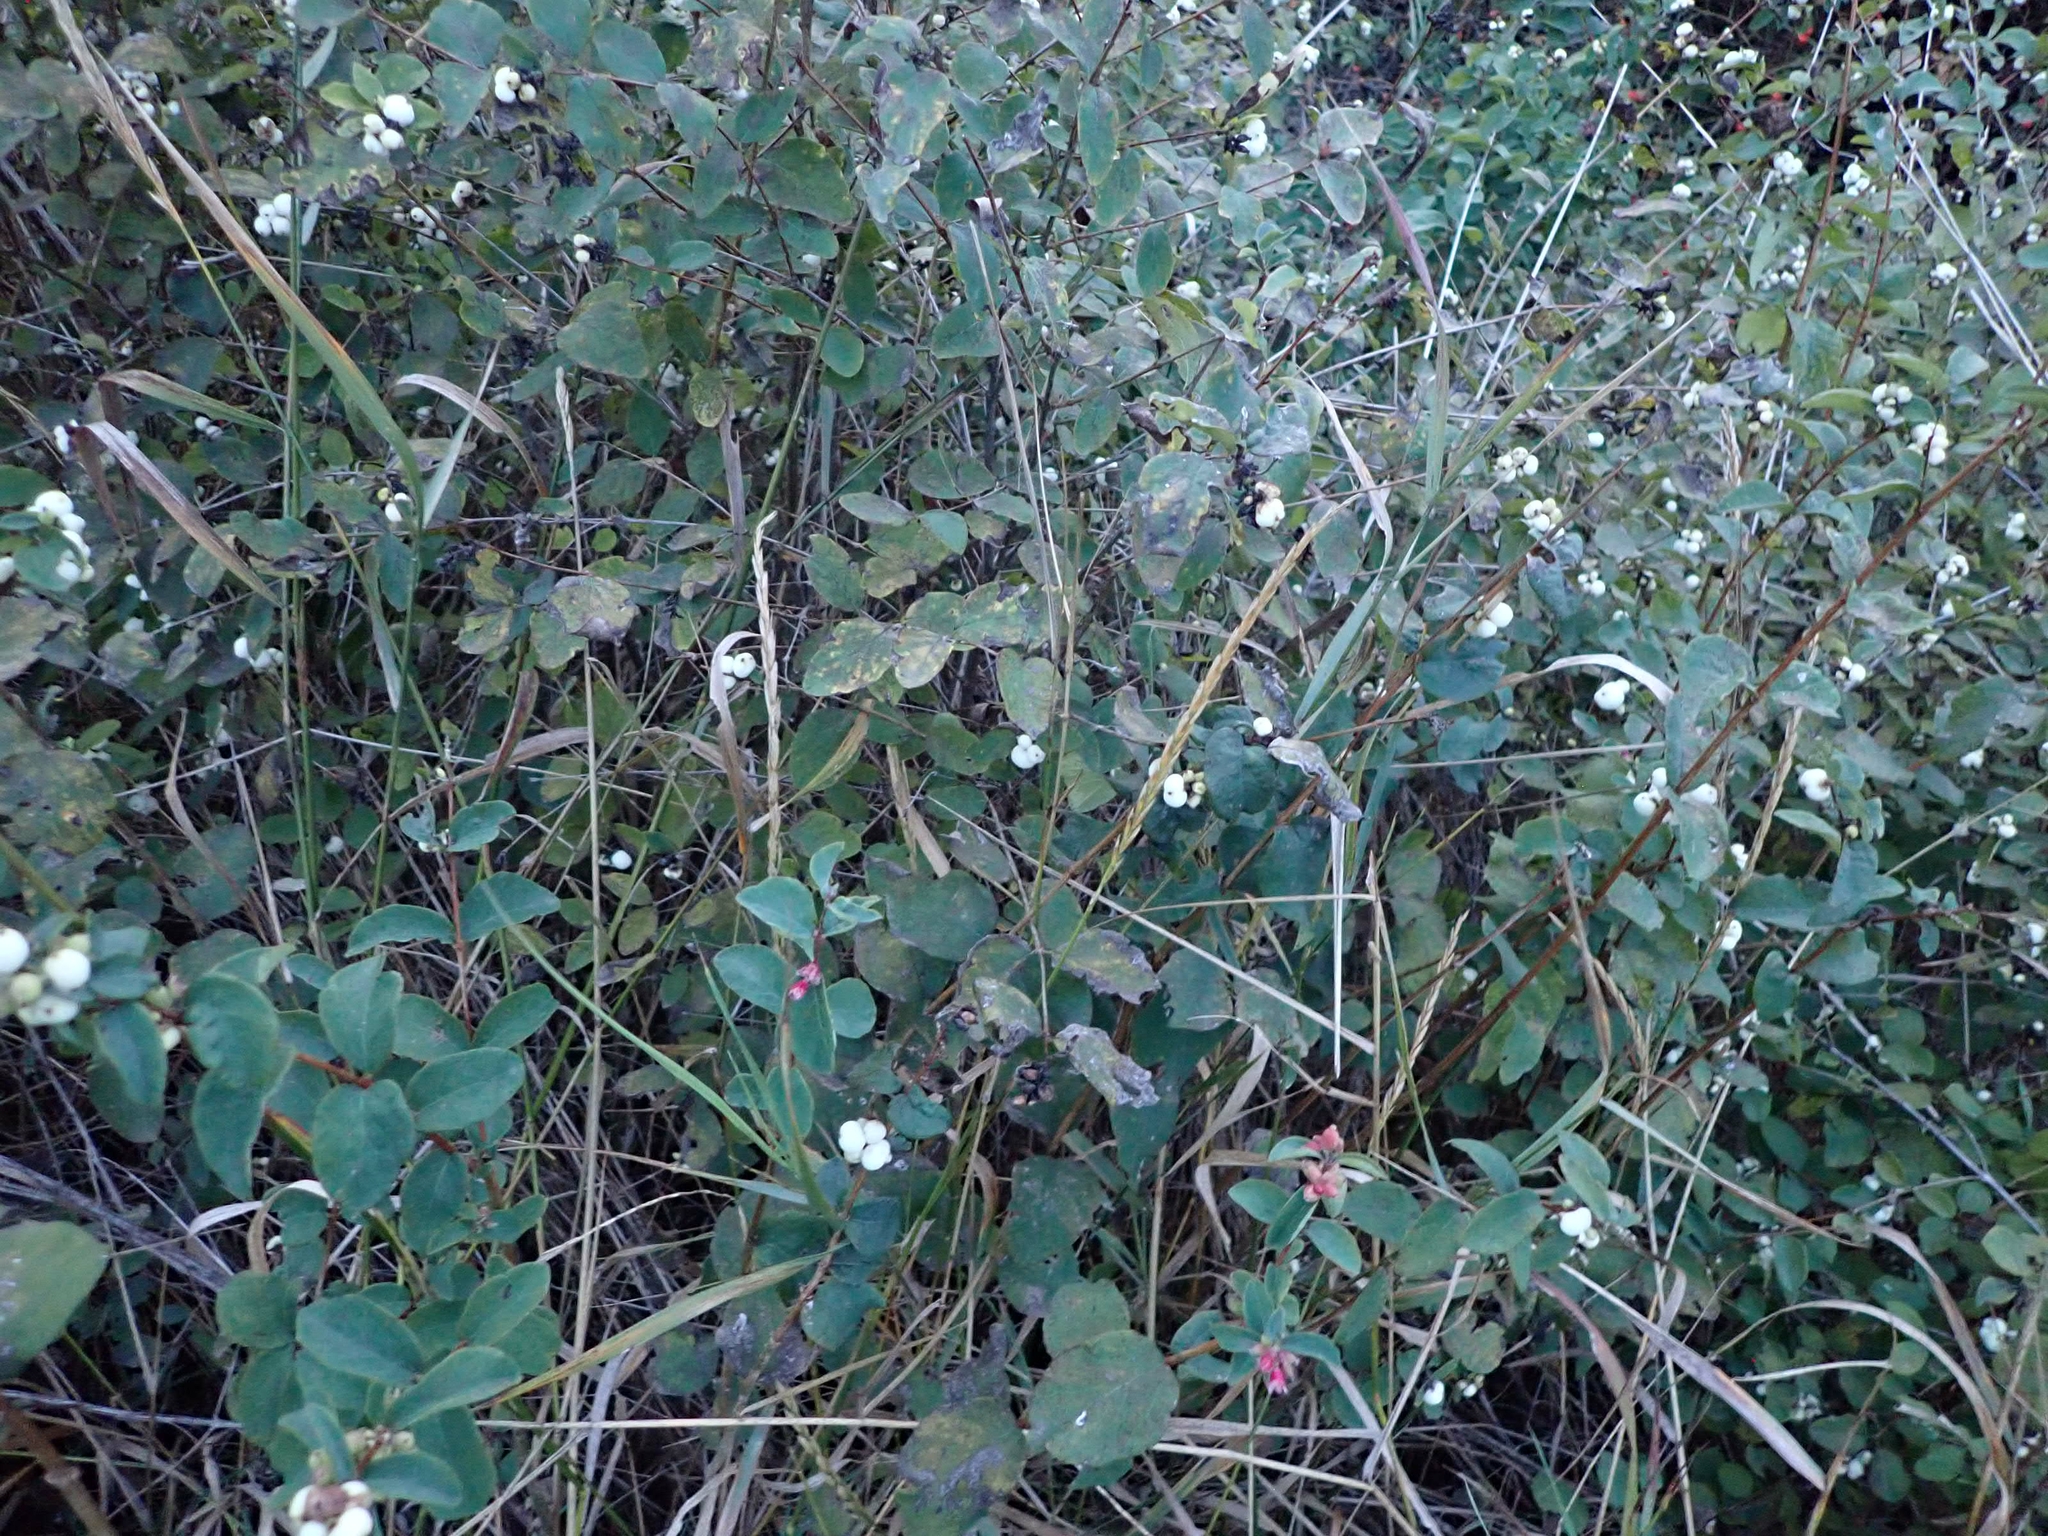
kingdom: Plantae
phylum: Tracheophyta
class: Magnoliopsida
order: Dipsacales
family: Caprifoliaceae
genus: Symphoricarpos
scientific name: Symphoricarpos albus
